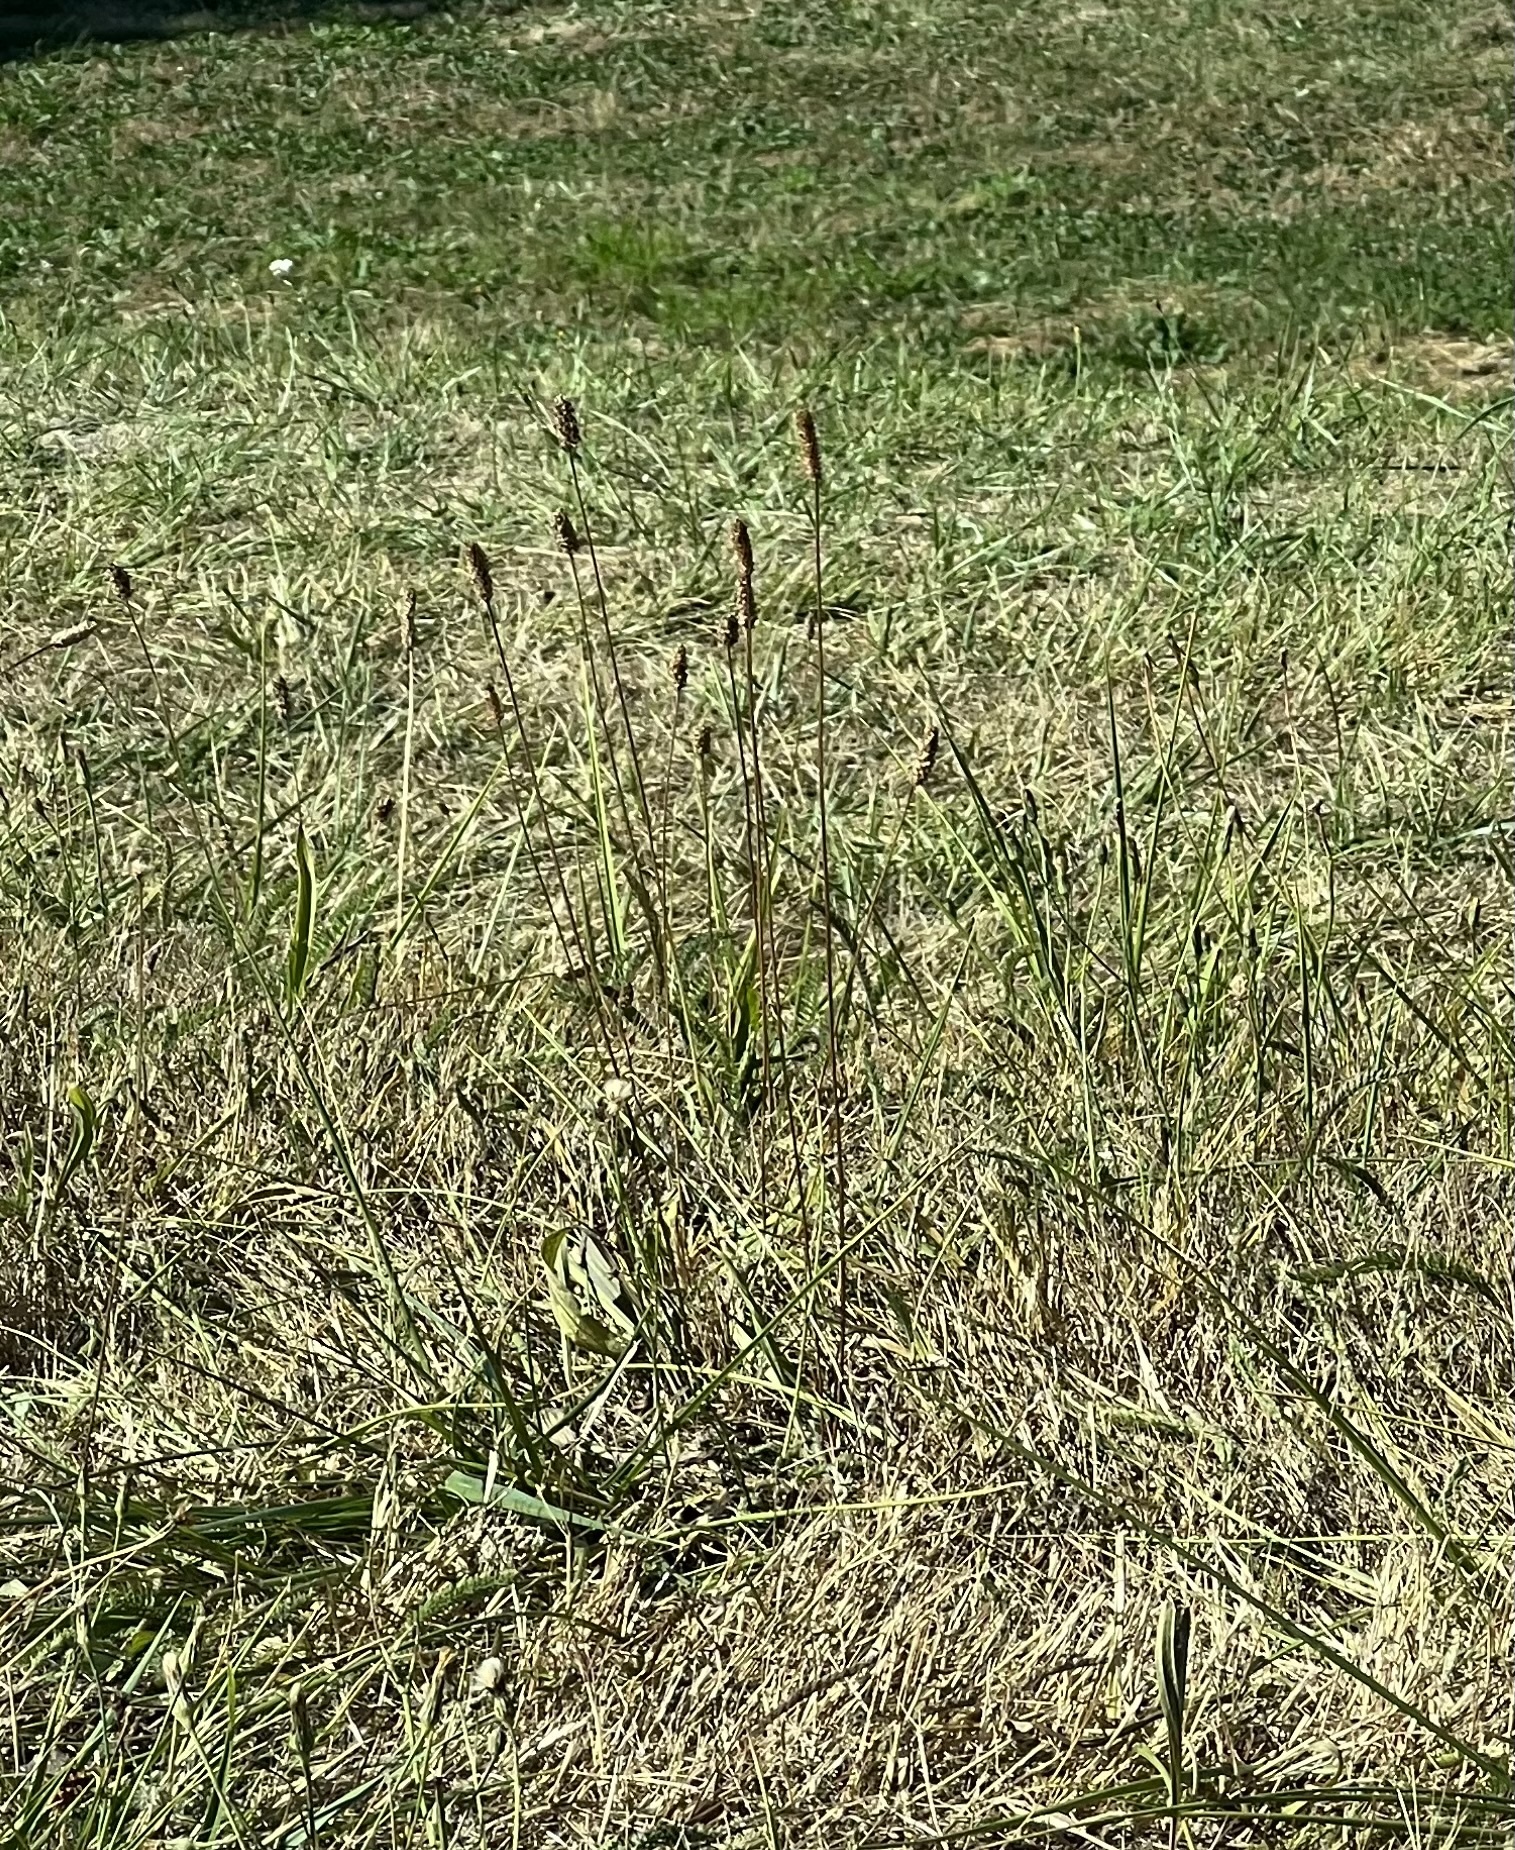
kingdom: Plantae
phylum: Tracheophyta
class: Magnoliopsida
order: Lamiales
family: Plantaginaceae
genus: Plantago
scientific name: Plantago lanceolata
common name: Ribwort plantain
